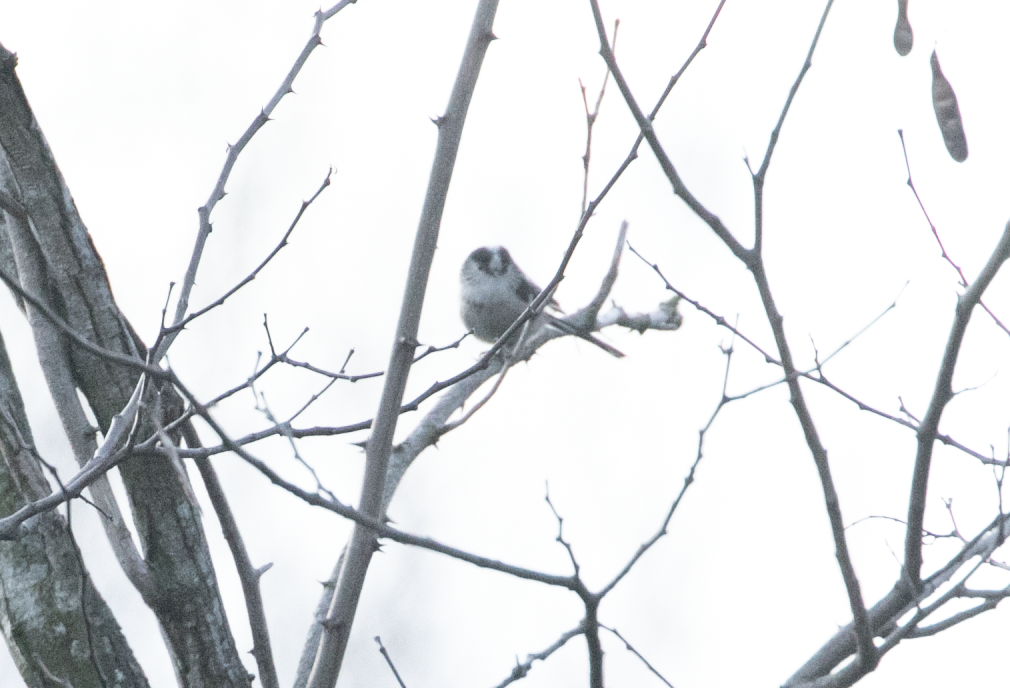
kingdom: Animalia
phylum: Chordata
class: Aves
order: Passeriformes
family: Aegithalidae
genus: Aegithalos
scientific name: Aegithalos caudatus
